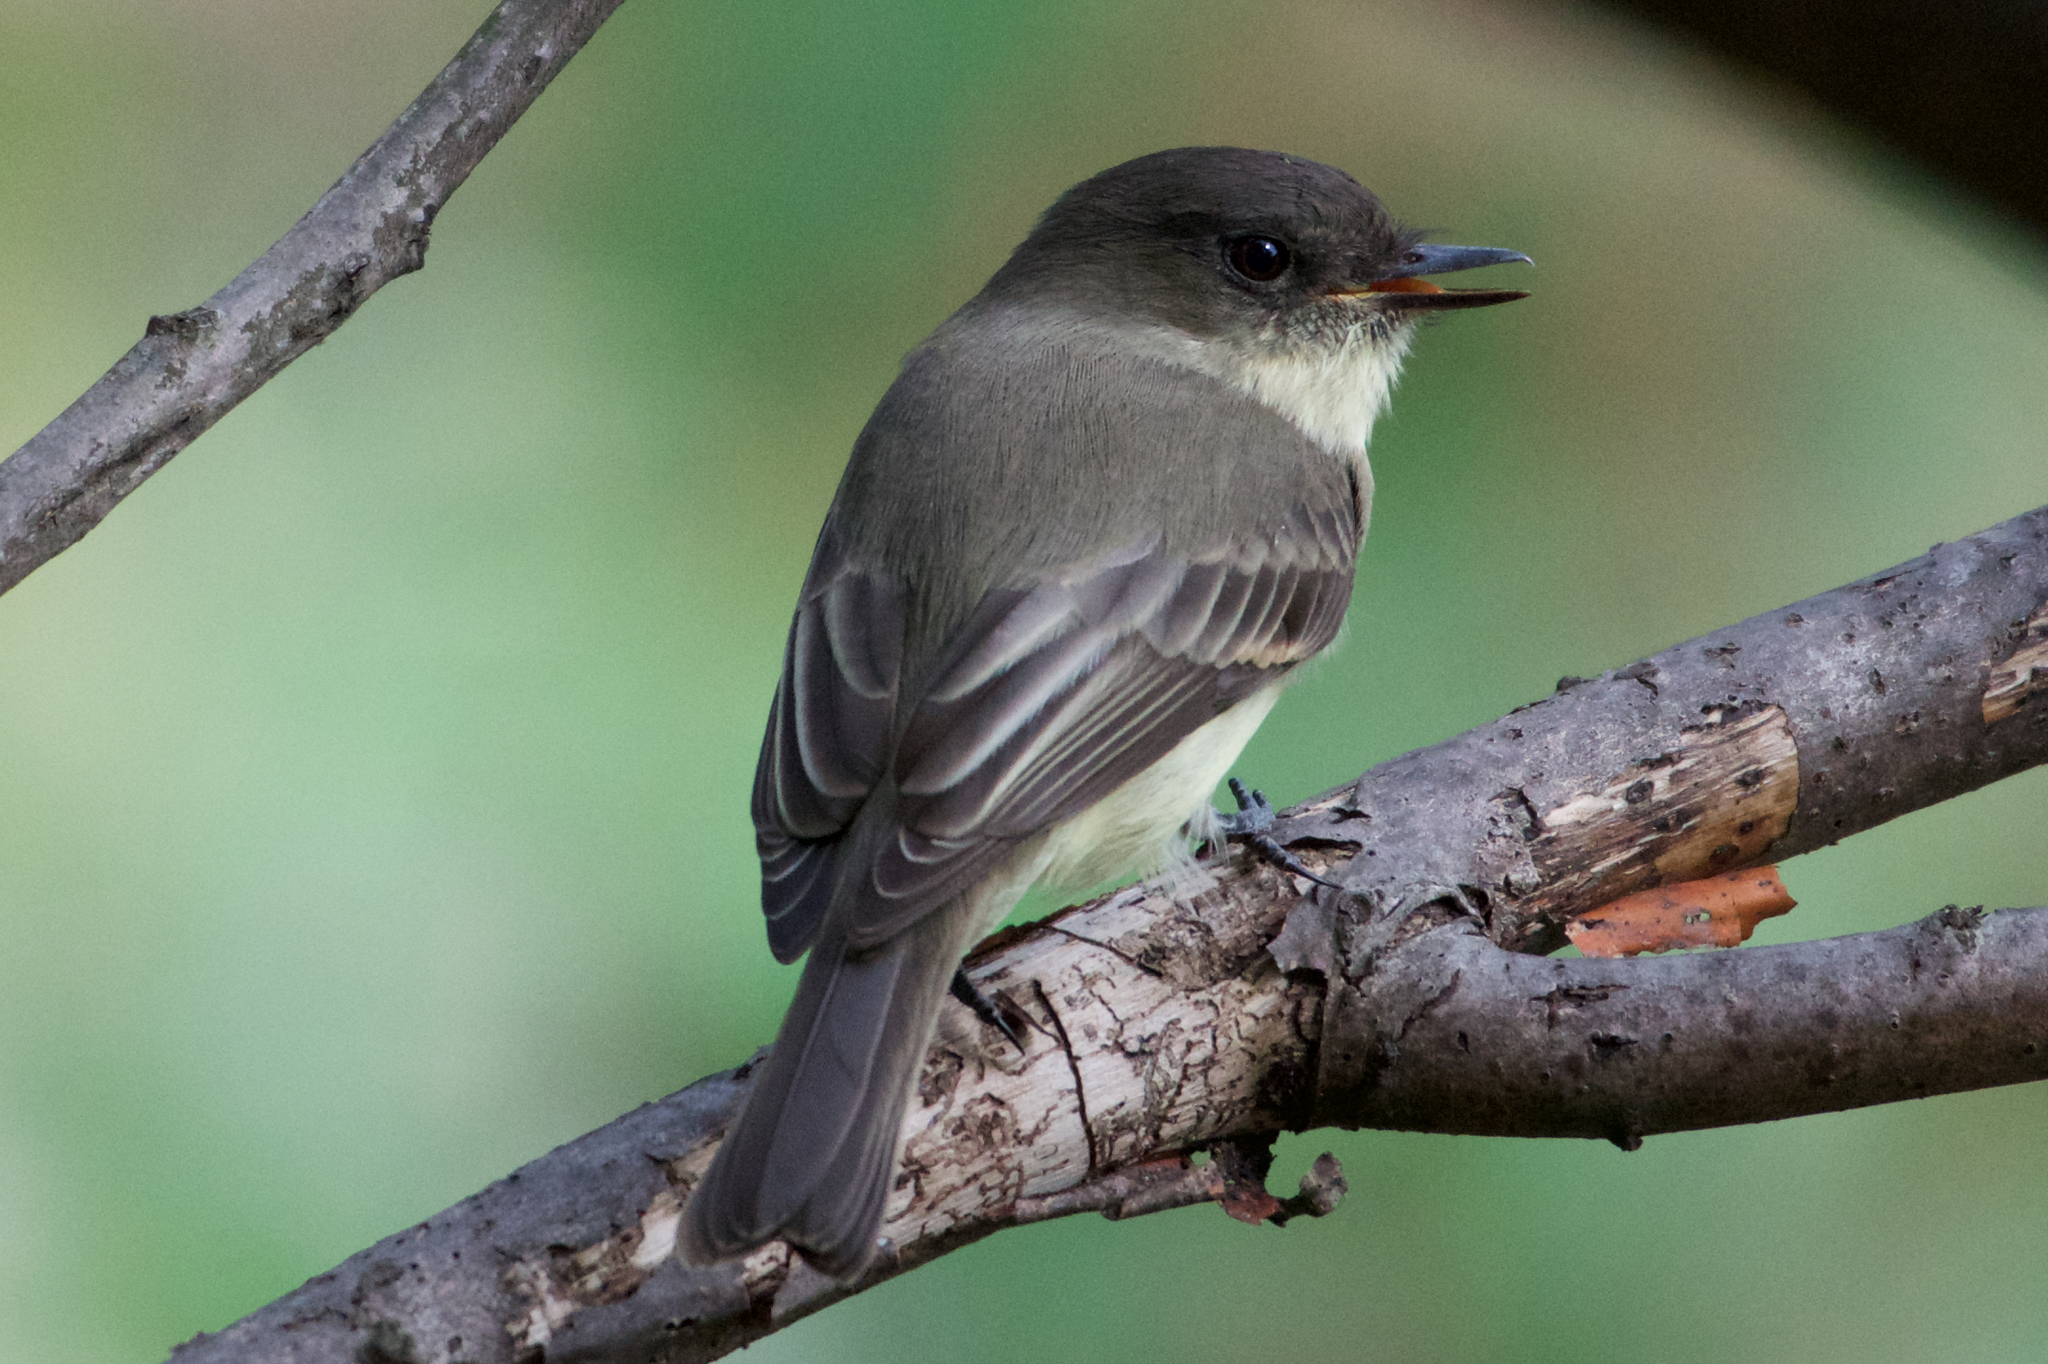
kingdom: Animalia
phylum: Chordata
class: Aves
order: Passeriformes
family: Tyrannidae
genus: Sayornis
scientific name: Sayornis phoebe
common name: Eastern phoebe
